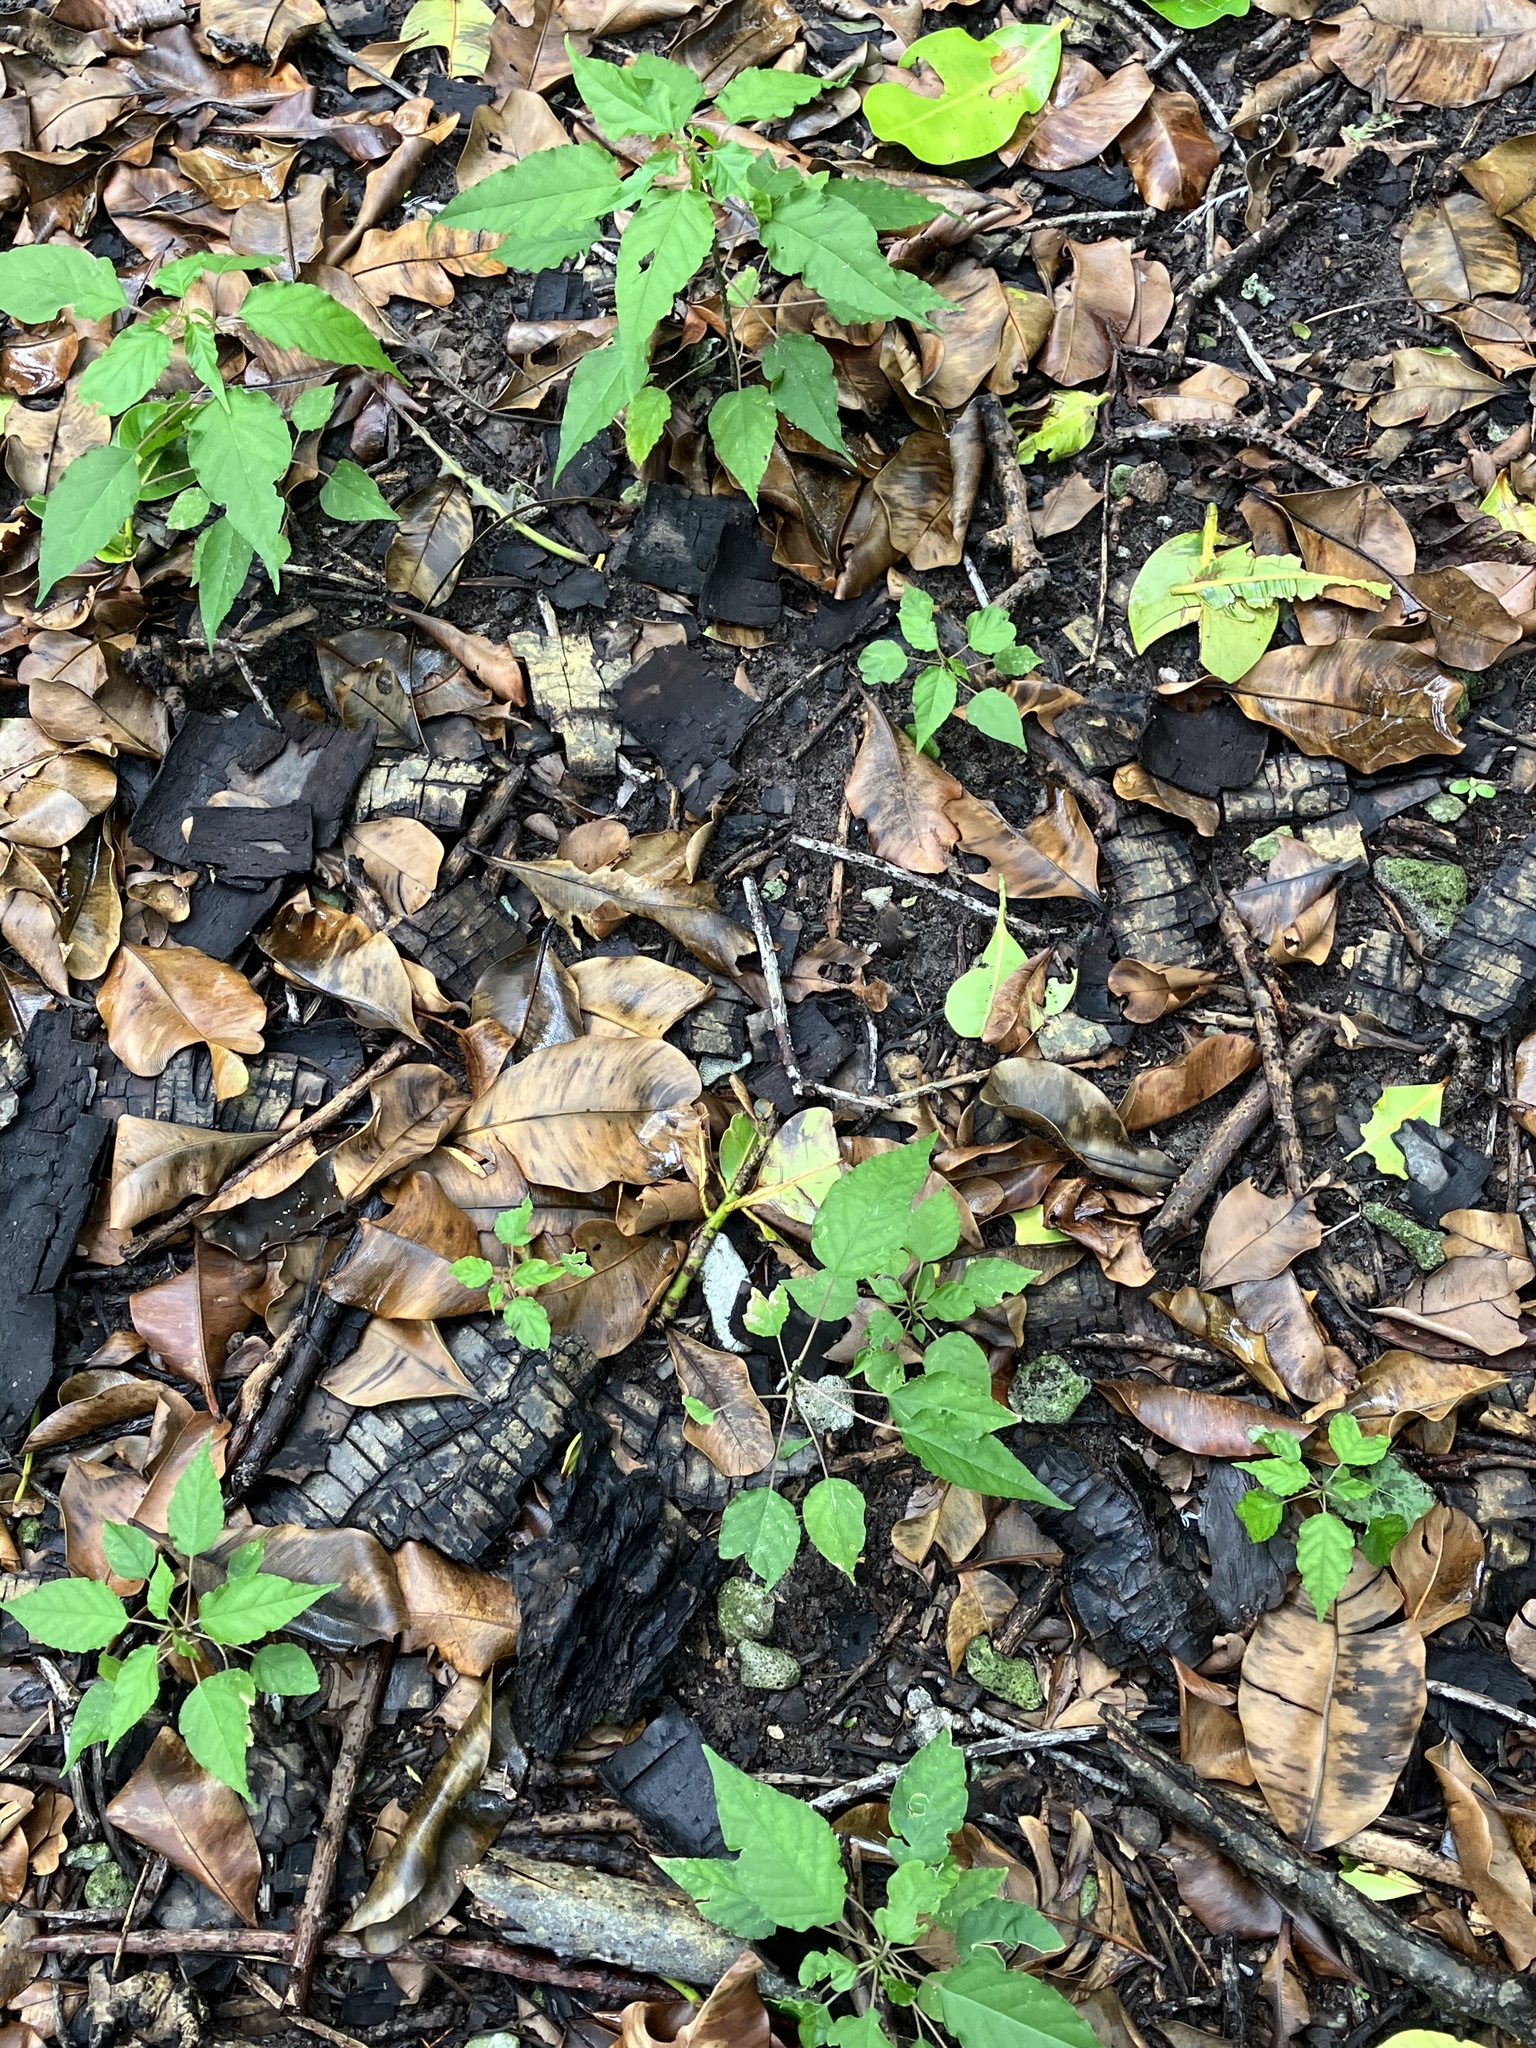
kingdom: Plantae
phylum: Tracheophyta
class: Magnoliopsida
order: Caryophyllales
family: Phytolaccaceae
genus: Rivina
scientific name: Rivina humilis
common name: Rougeplant
